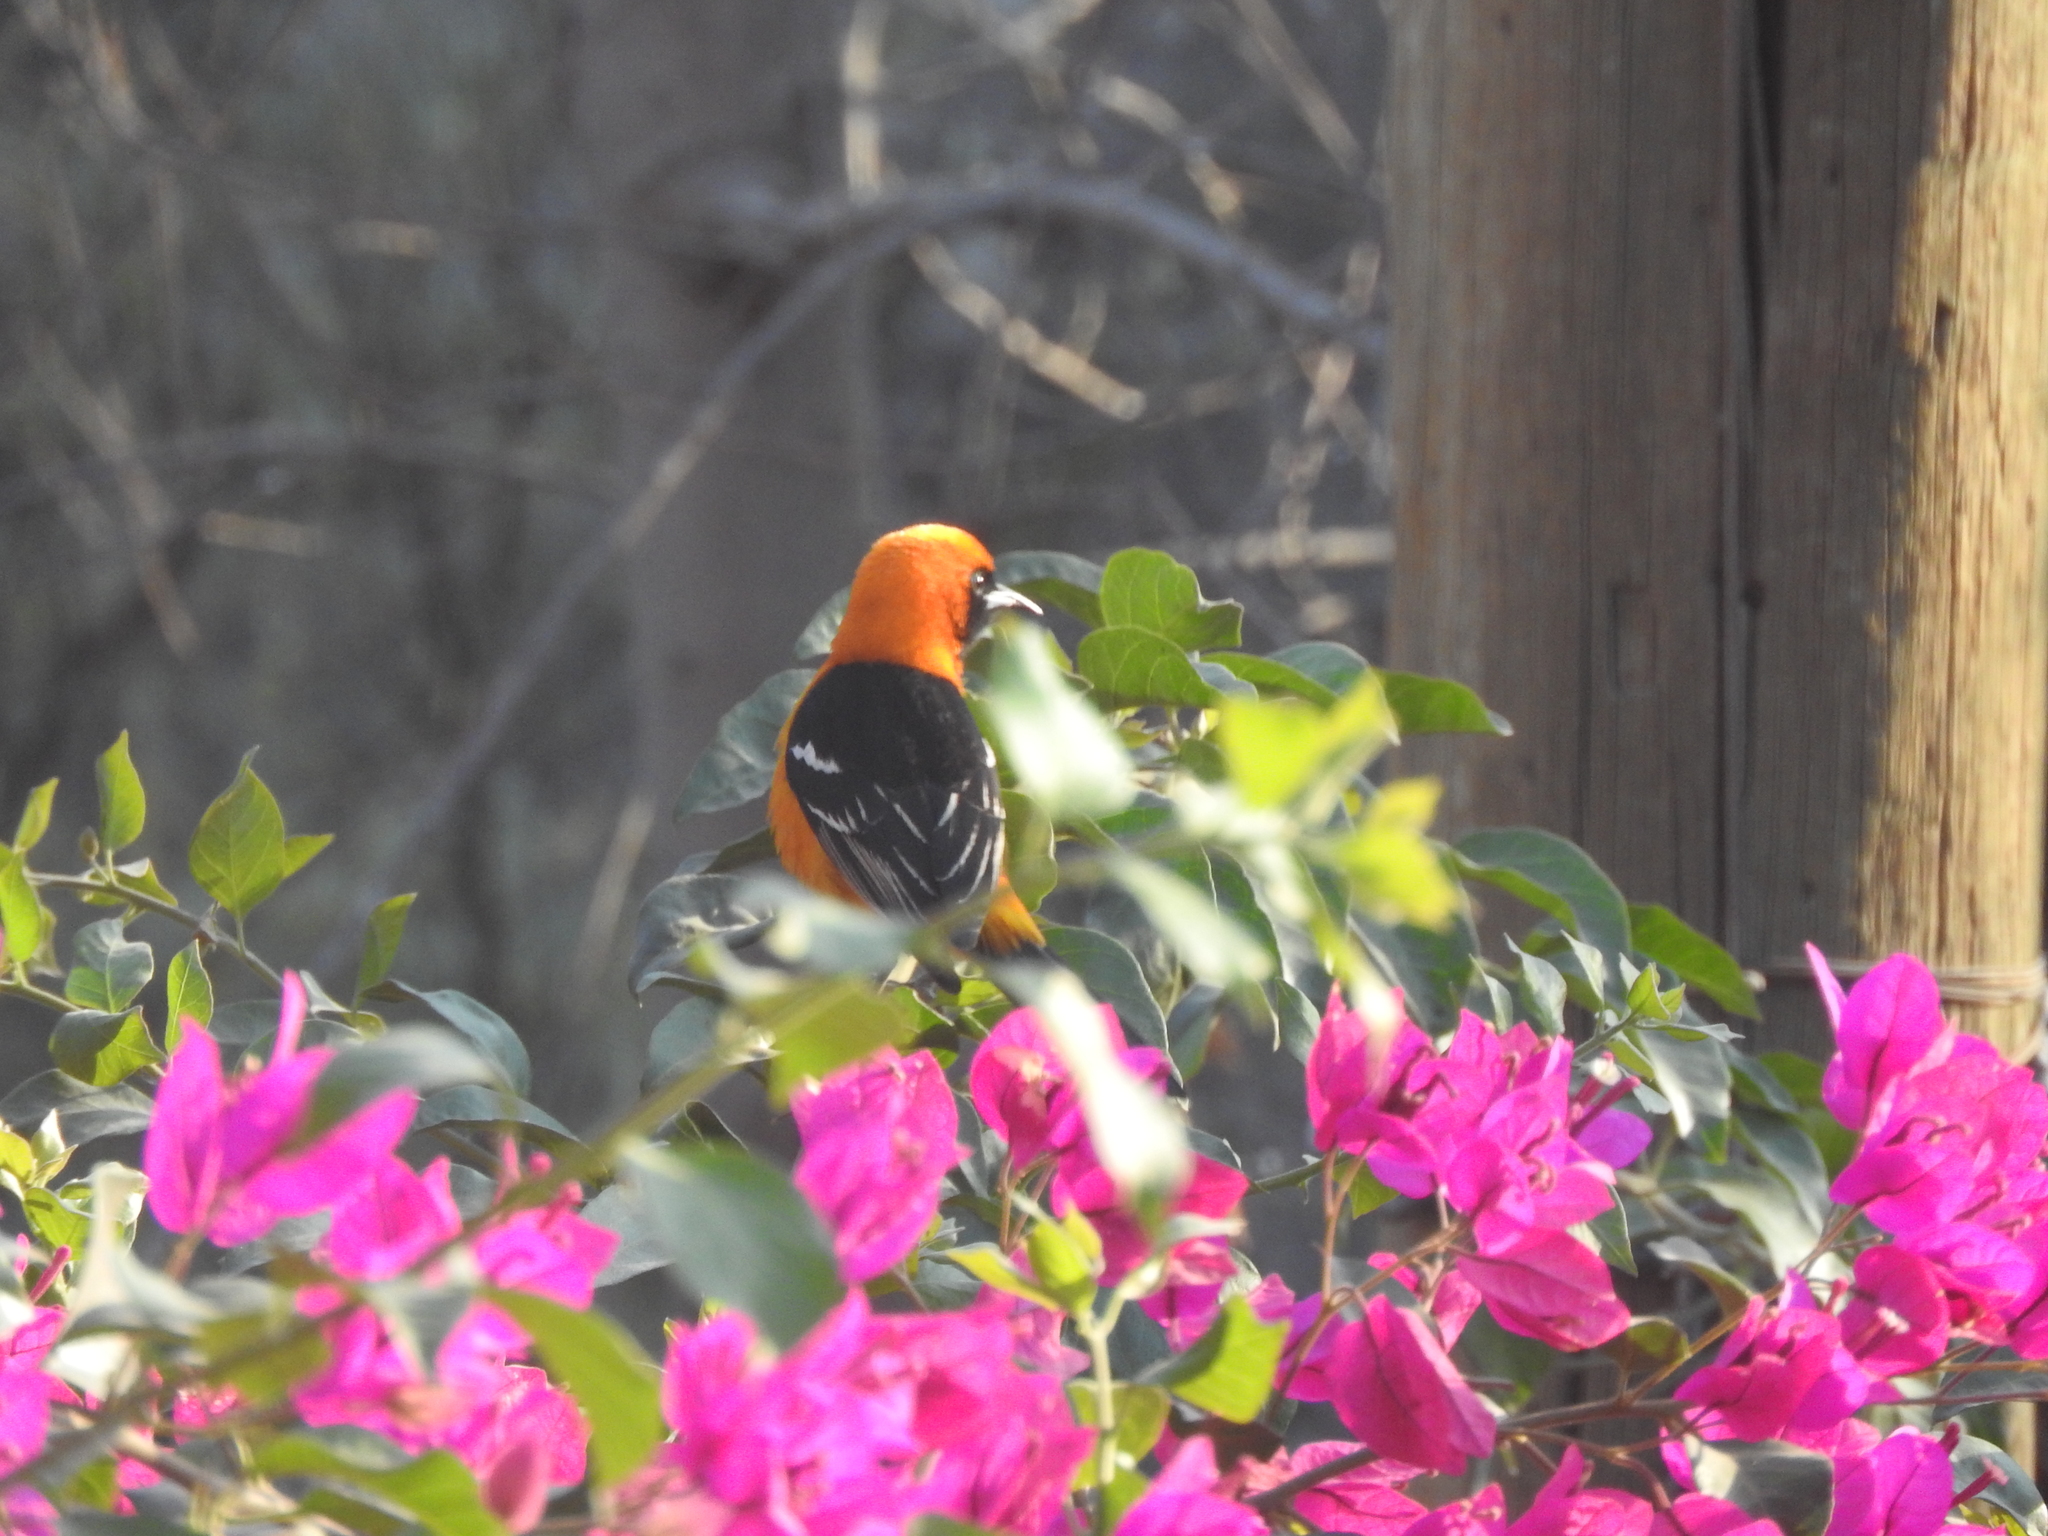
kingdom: Animalia
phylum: Chordata
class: Aves
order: Passeriformes
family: Icteridae
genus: Icterus
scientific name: Icterus cucullatus
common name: Hooded oriole
